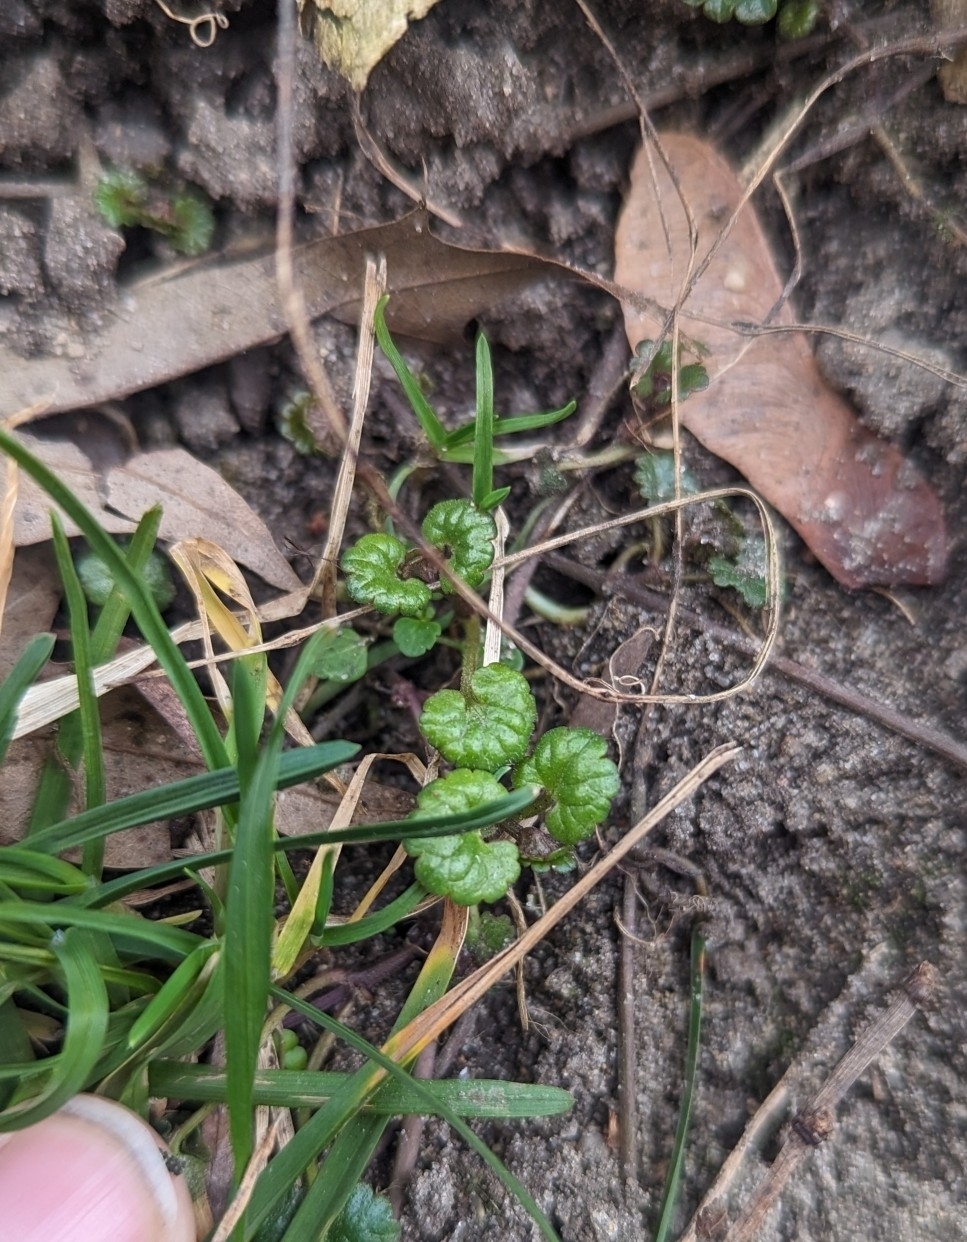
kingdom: Plantae
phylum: Tracheophyta
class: Magnoliopsida
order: Lamiales
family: Lamiaceae
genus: Glechoma
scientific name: Glechoma hederacea
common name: Ground ivy
